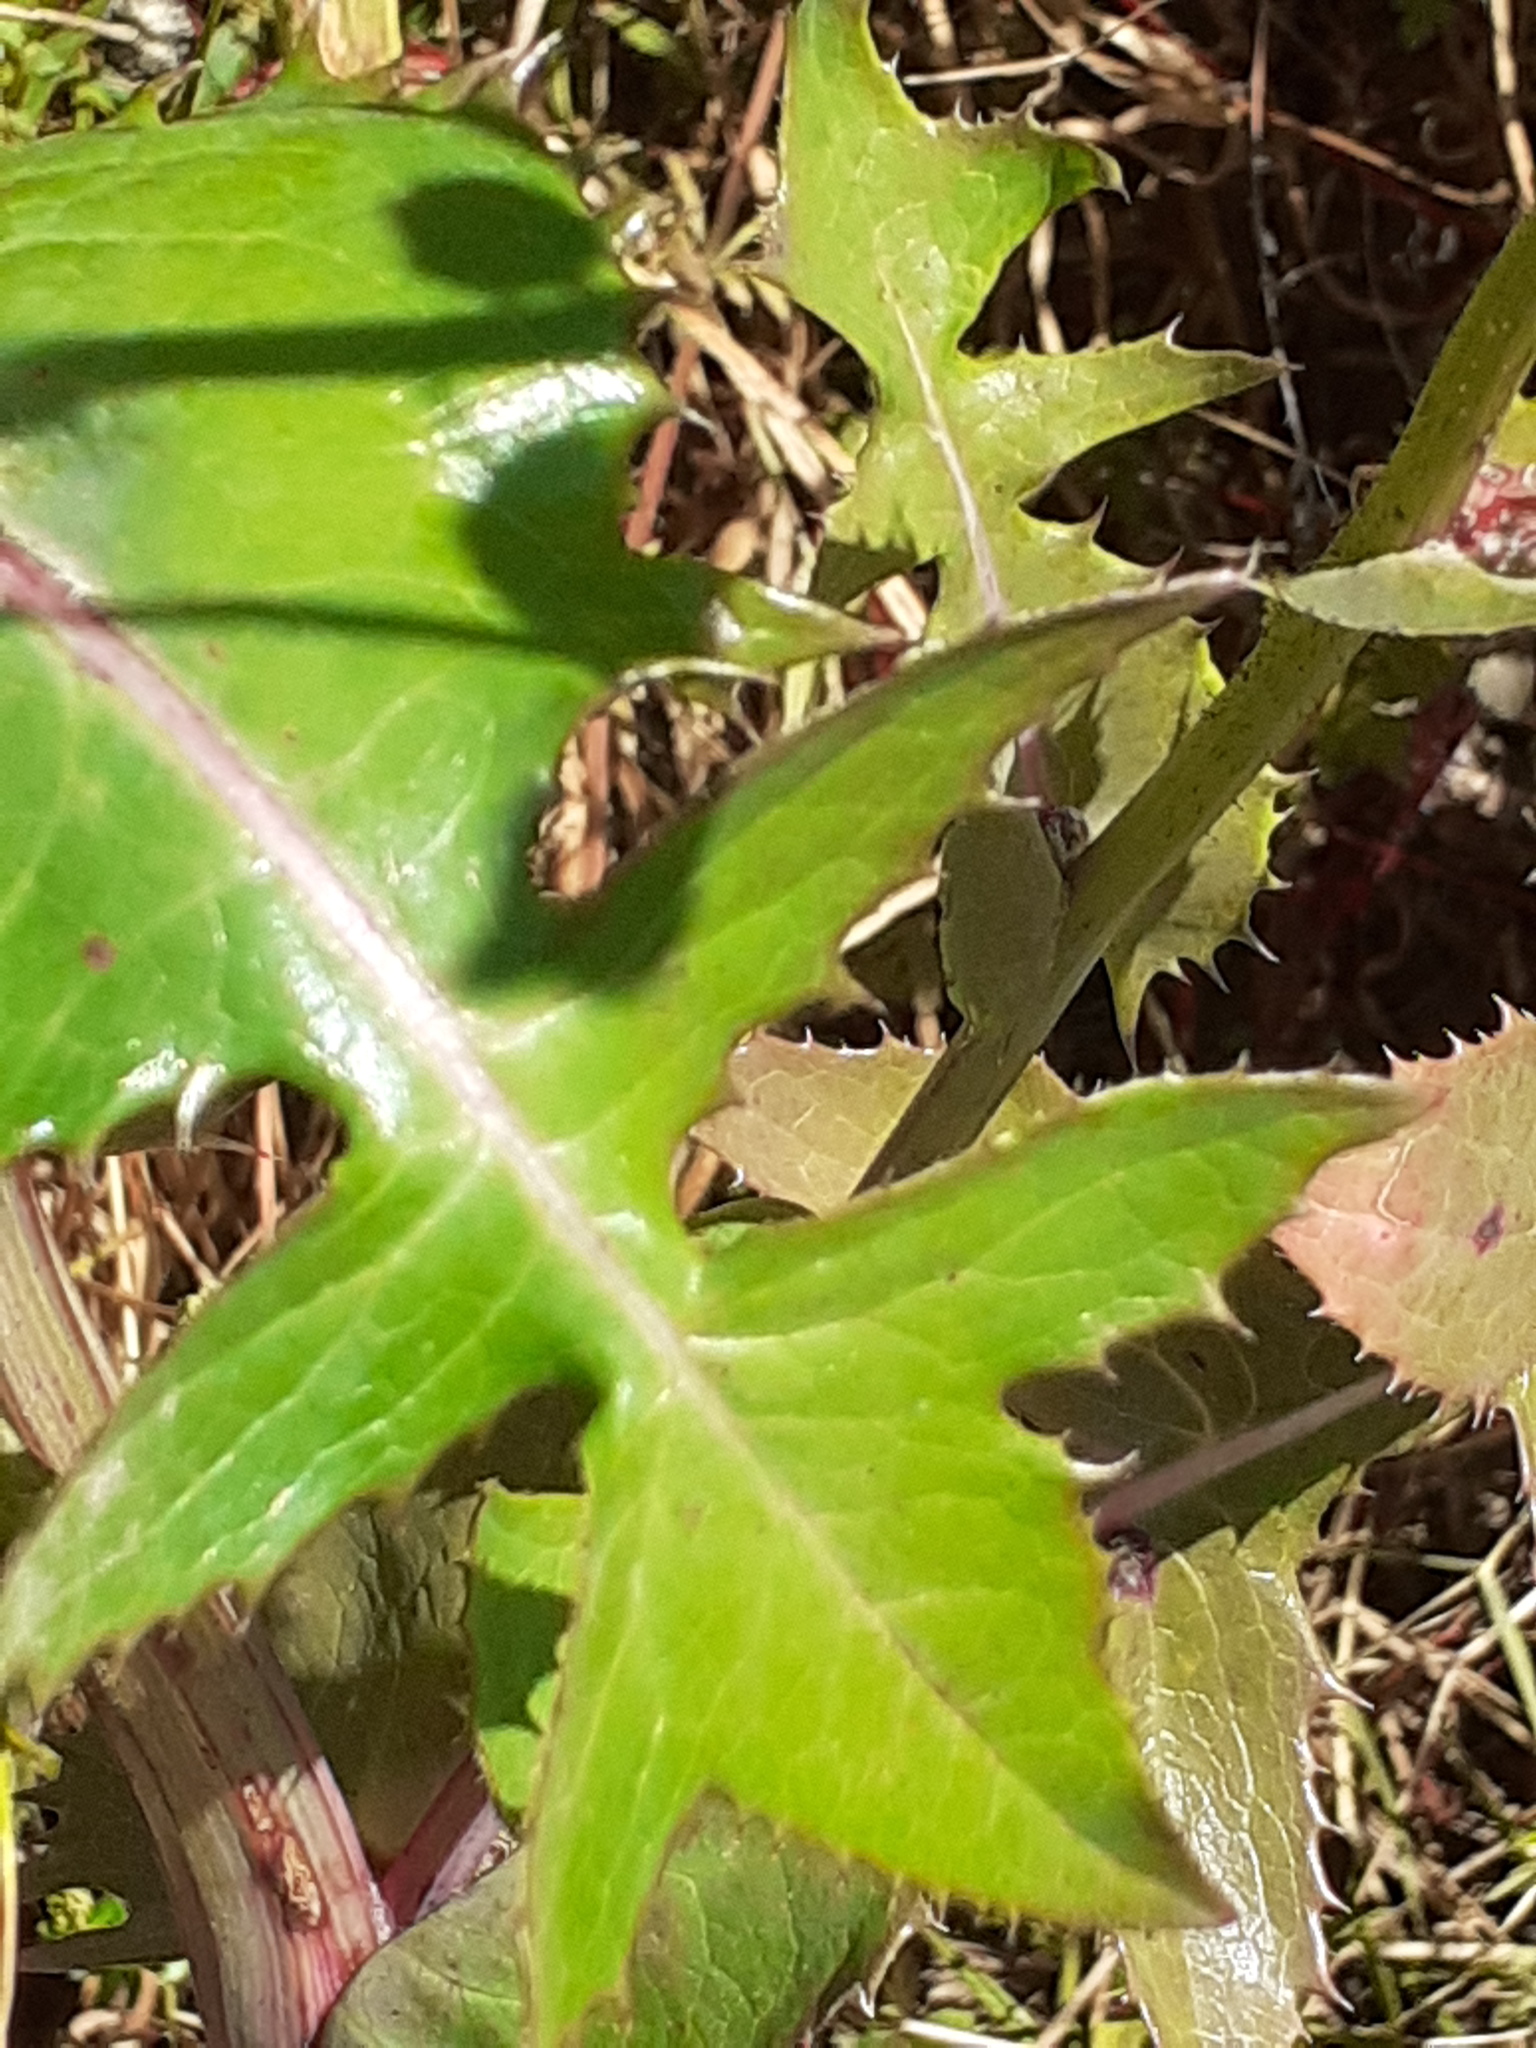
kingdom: Plantae
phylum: Tracheophyta
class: Magnoliopsida
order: Asterales
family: Asteraceae
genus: Sonchus
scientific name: Sonchus asper
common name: Prickly sow-thistle
